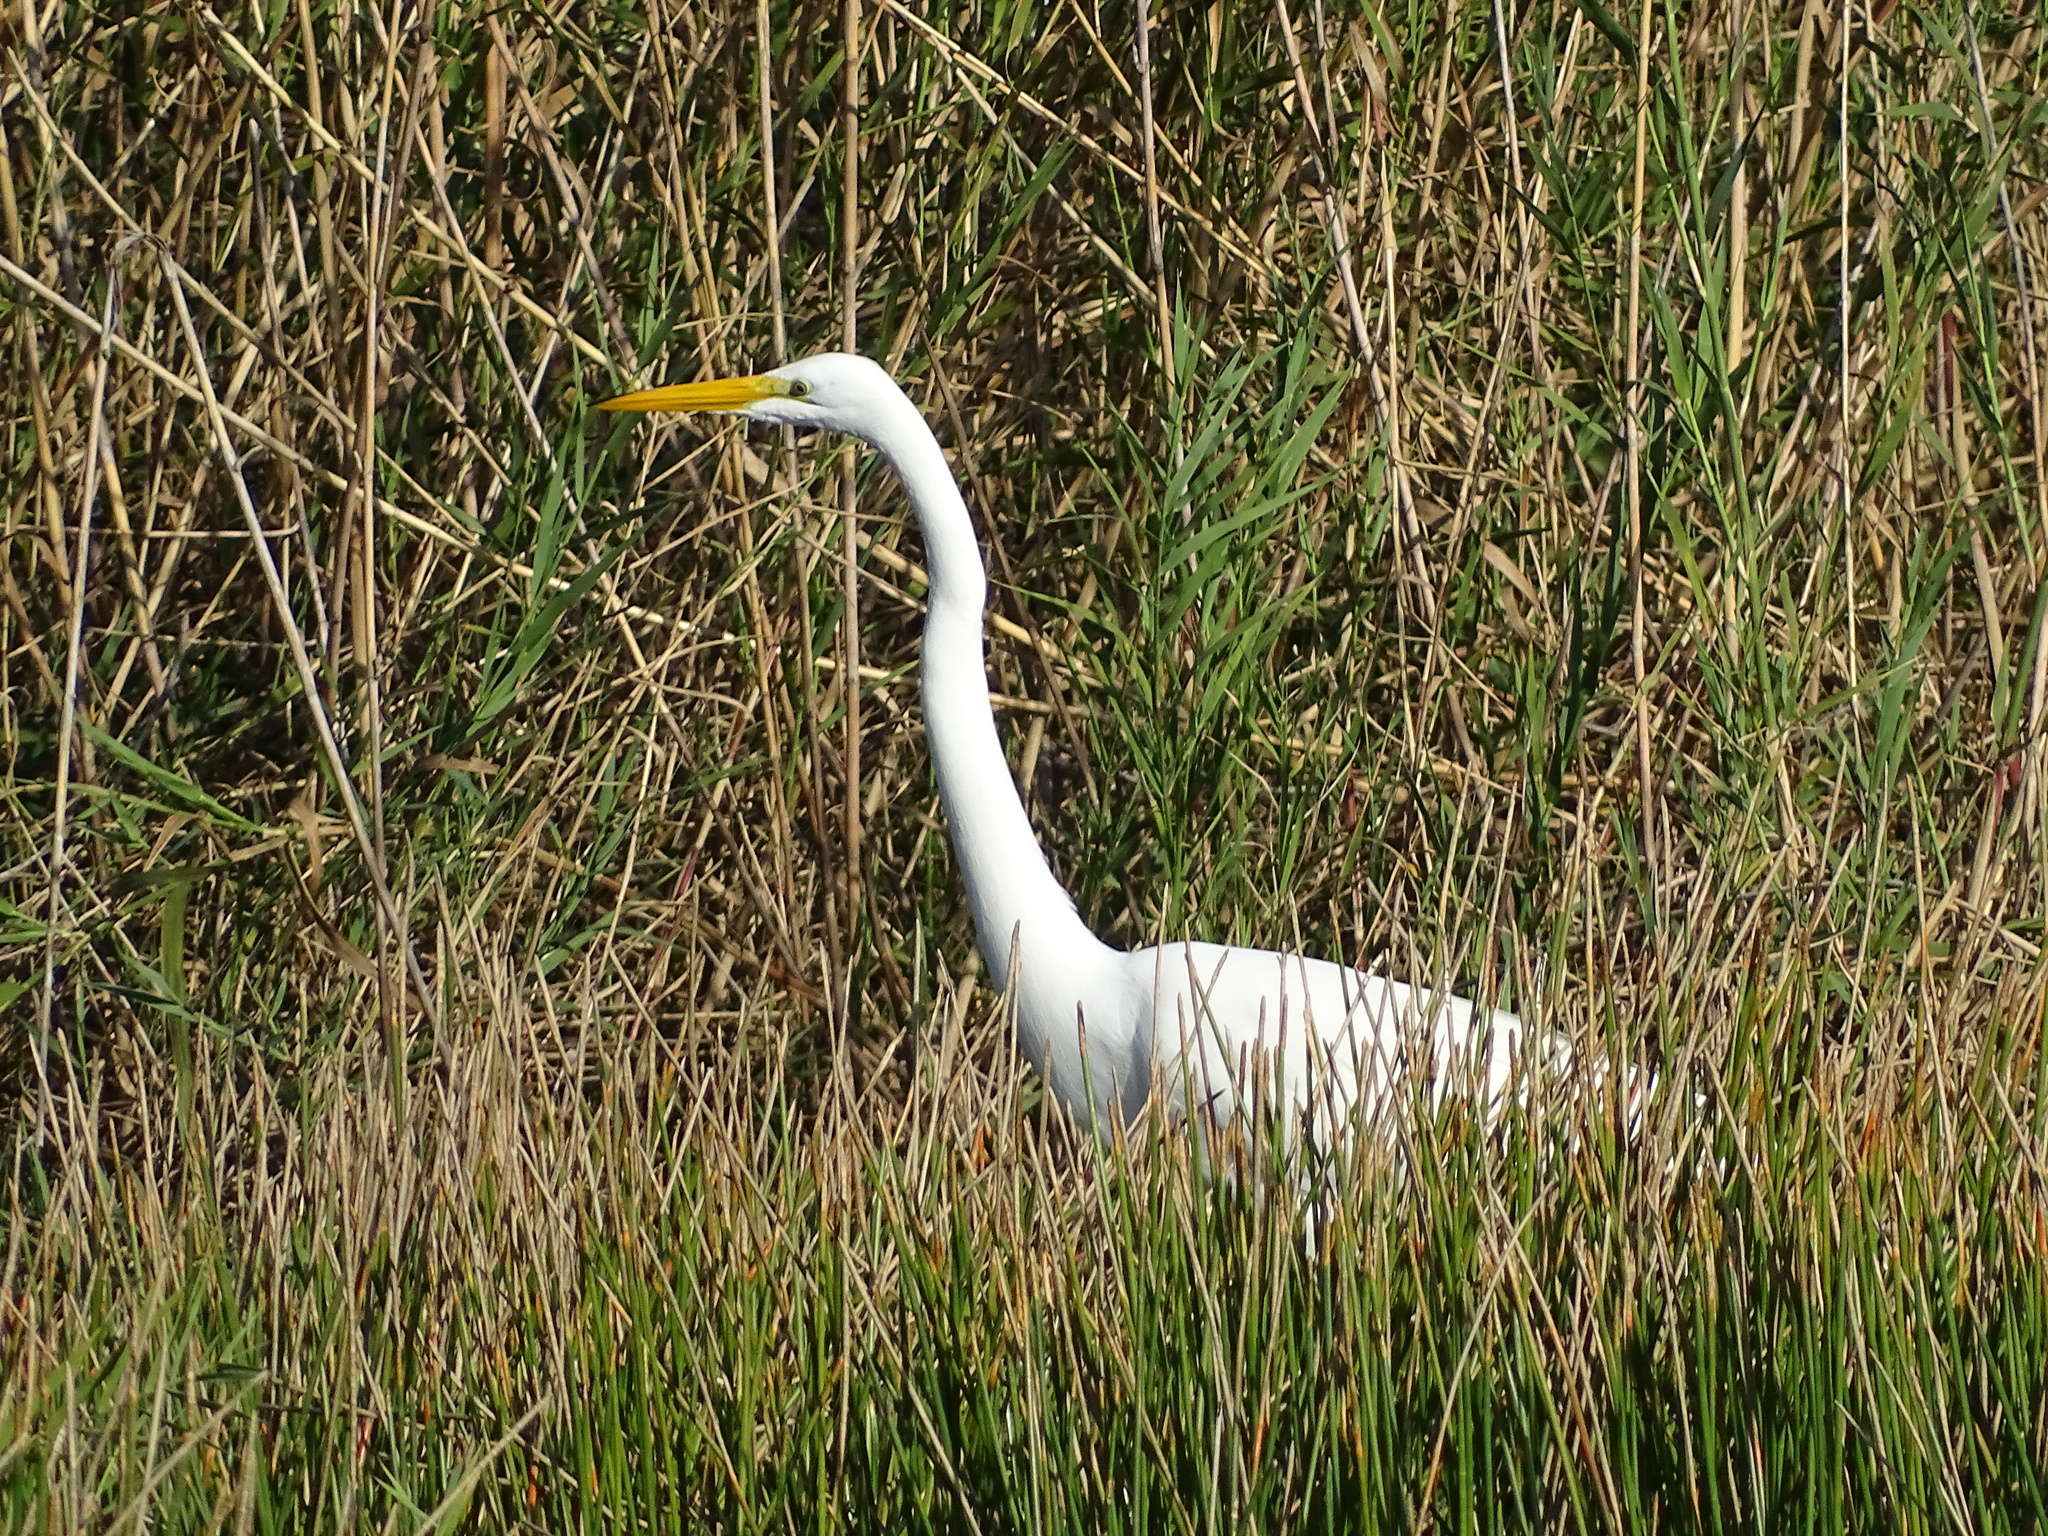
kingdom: Animalia
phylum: Chordata
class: Aves
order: Pelecaniformes
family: Ardeidae
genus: Ardea
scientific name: Ardea alba
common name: Great egret
